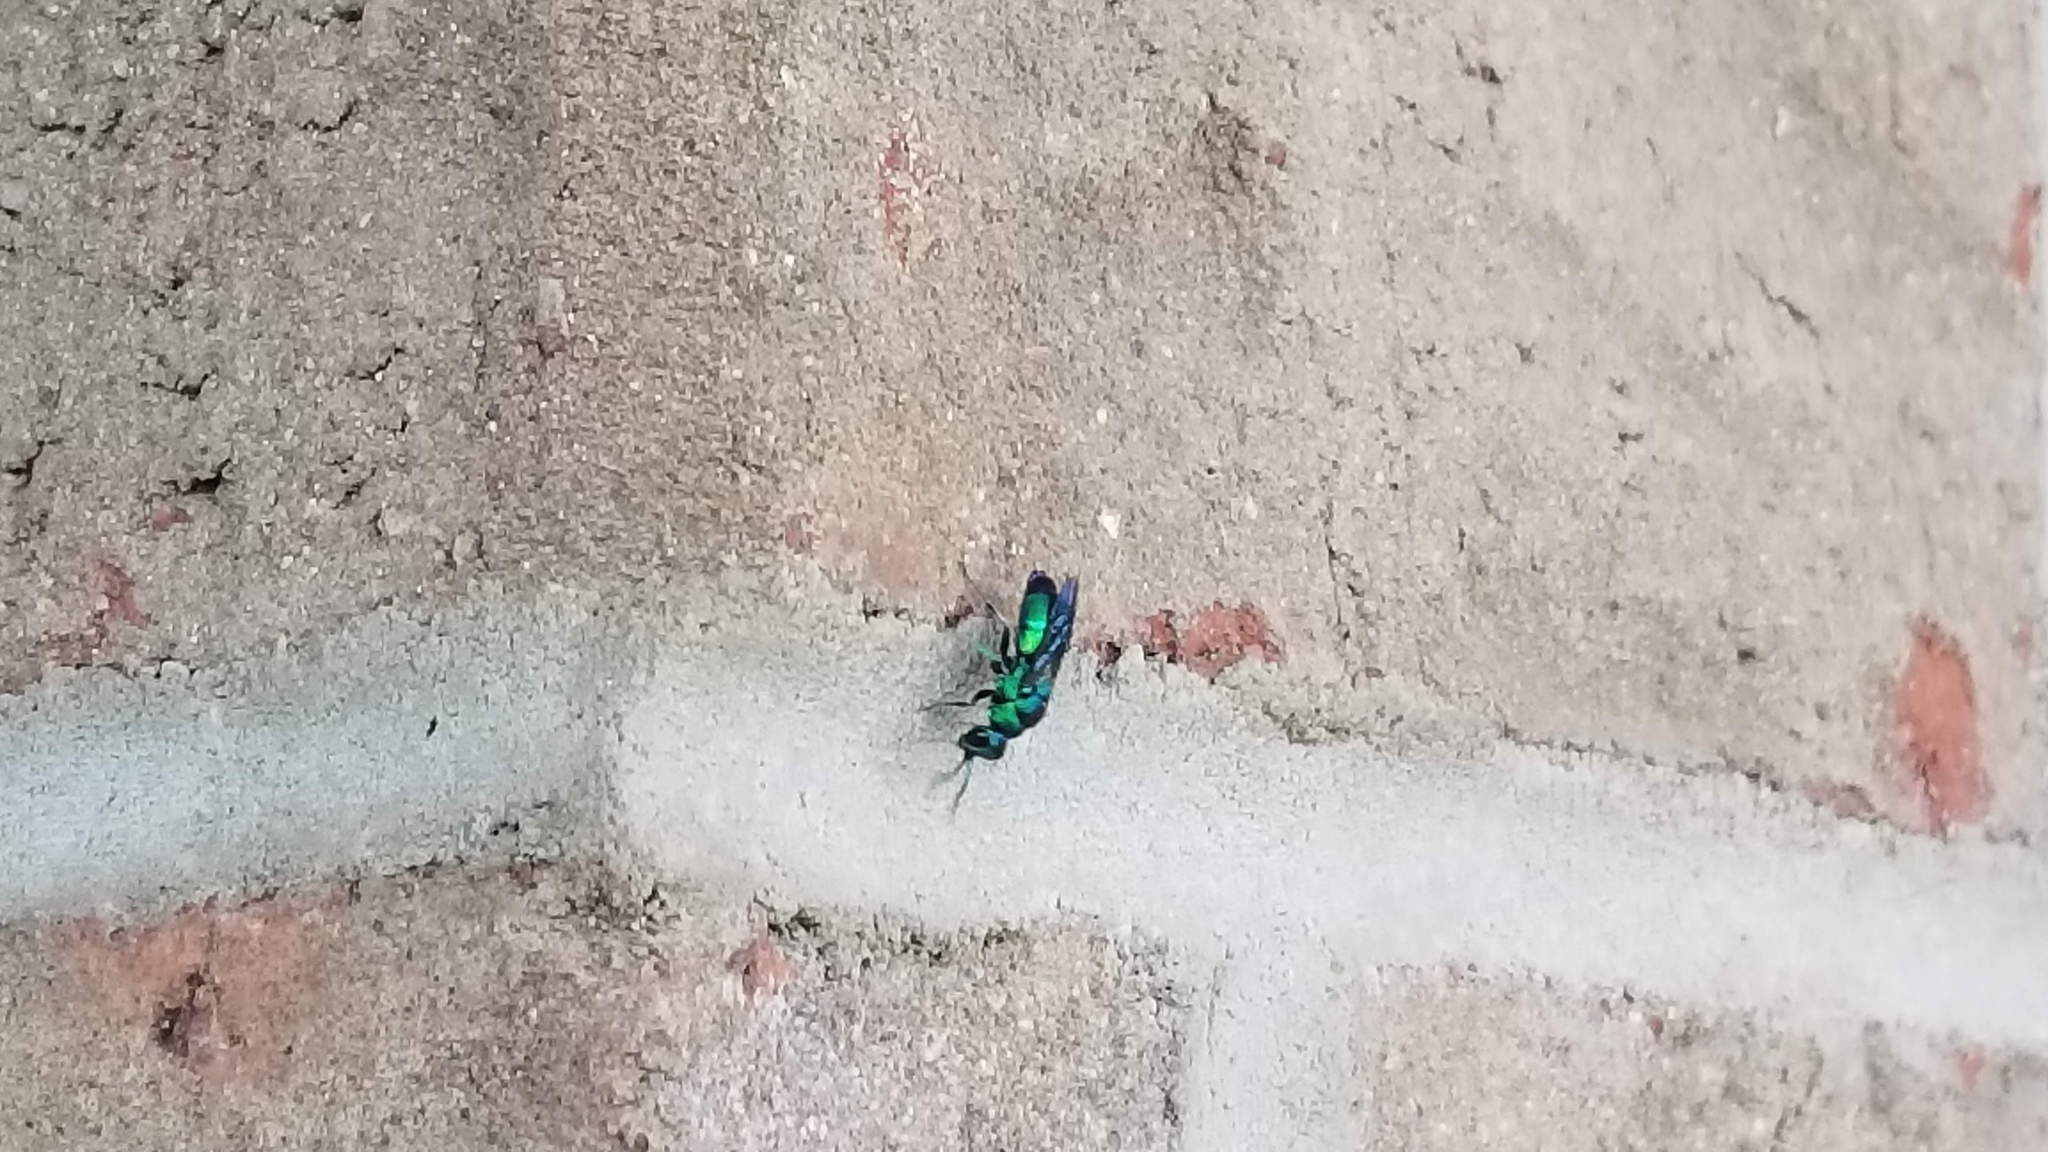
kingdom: Animalia
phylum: Arthropoda
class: Insecta
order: Hymenoptera
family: Chrysididae
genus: Chrysis
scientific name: Chrysis angolensis
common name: Cuckoo wasp
